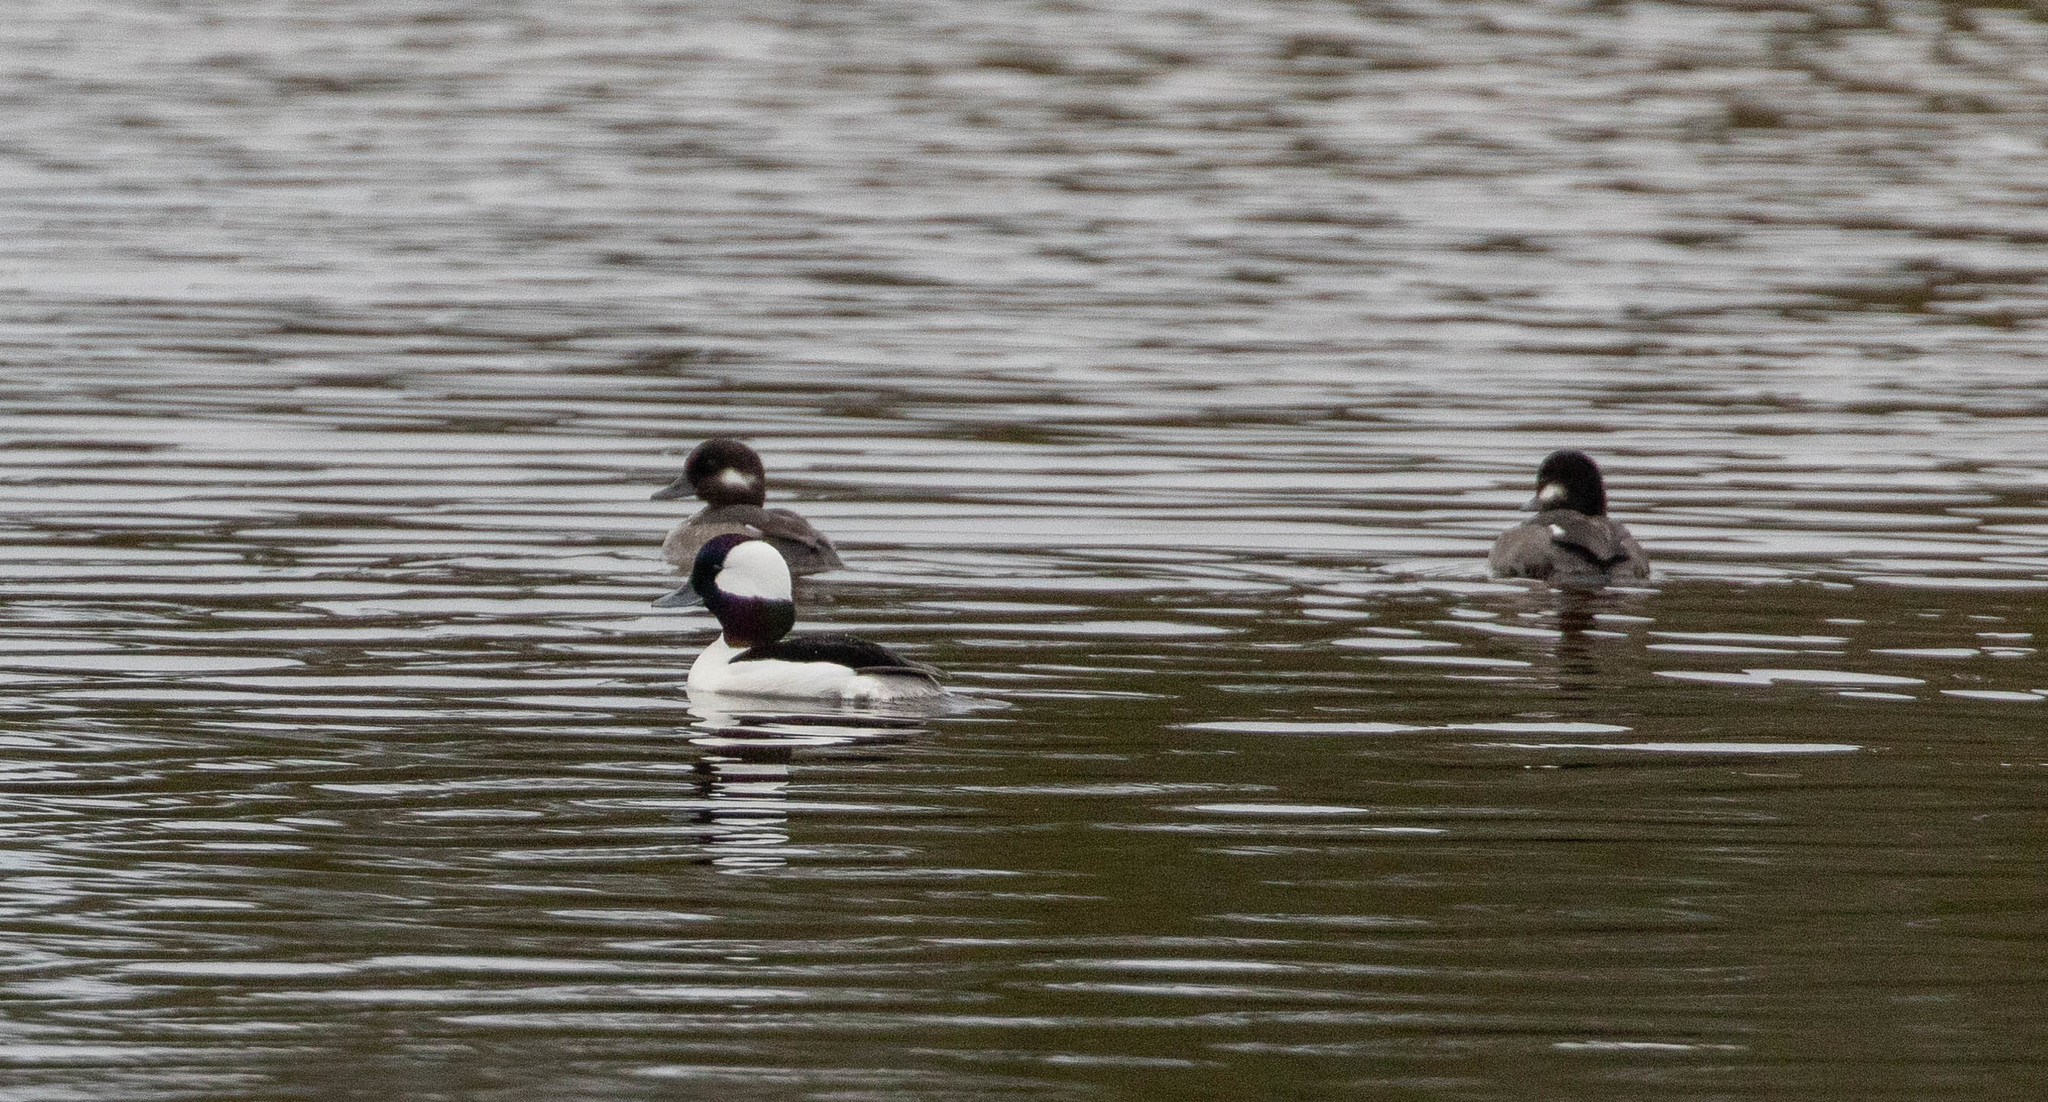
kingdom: Animalia
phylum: Chordata
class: Aves
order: Anseriformes
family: Anatidae
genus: Bucephala
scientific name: Bucephala albeola
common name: Bufflehead
